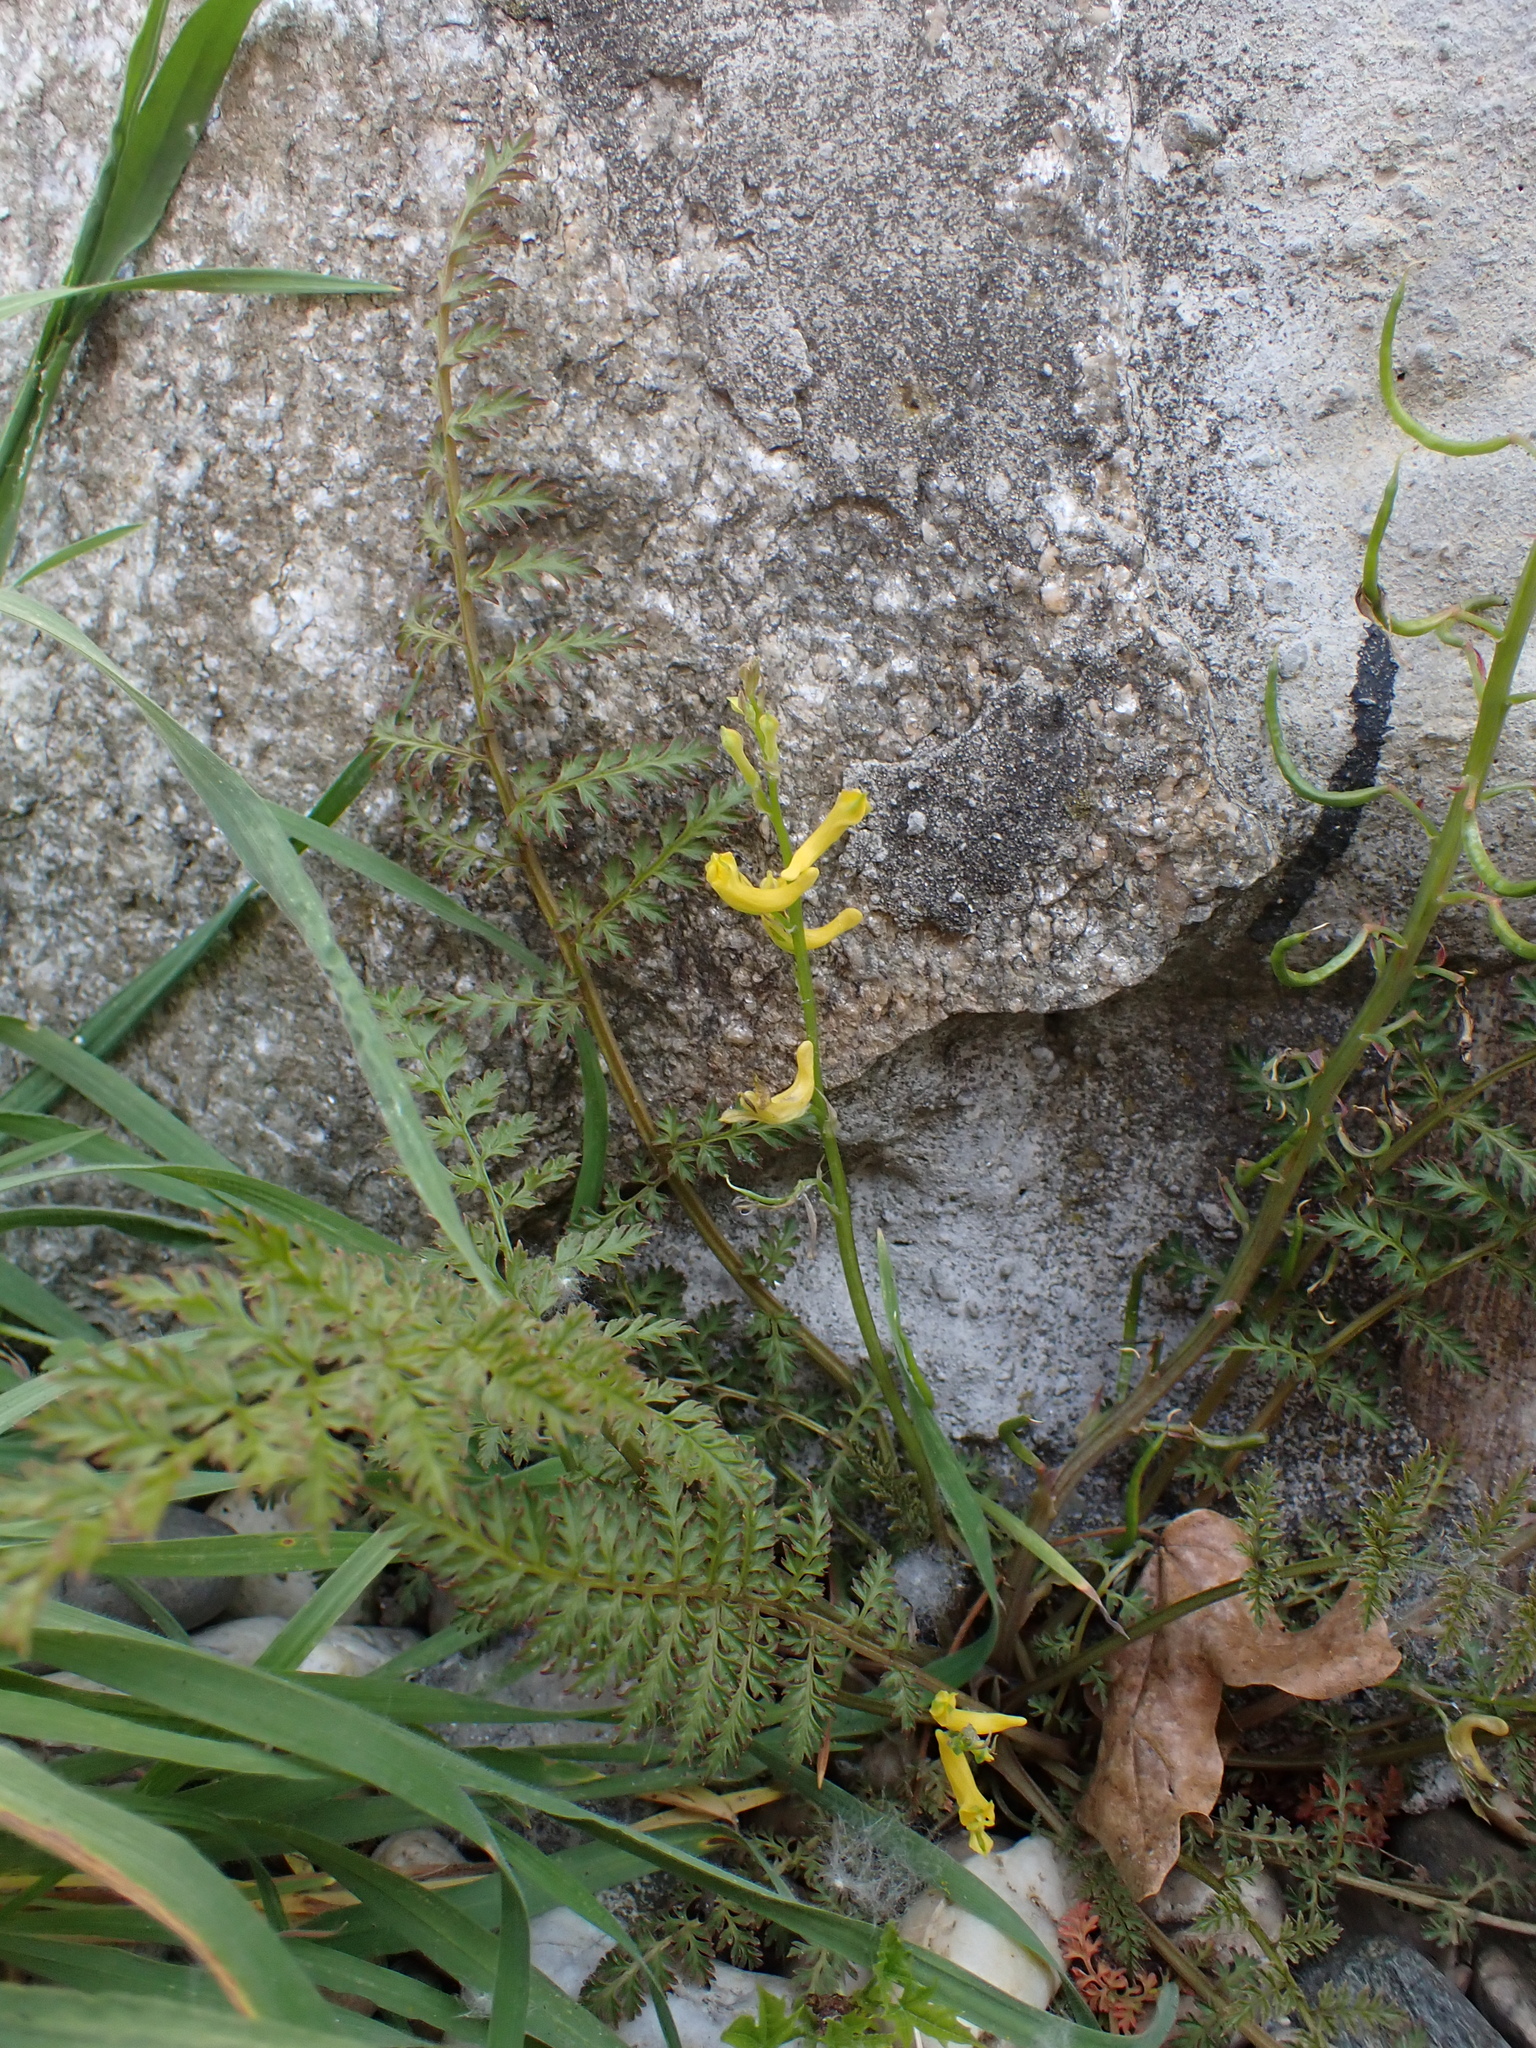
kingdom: Plantae
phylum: Tracheophyta
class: Magnoliopsida
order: Ranunculales
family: Papaveraceae
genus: Corydalis
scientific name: Corydalis cheilanthifolia
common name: Fern-leaved corydalis
